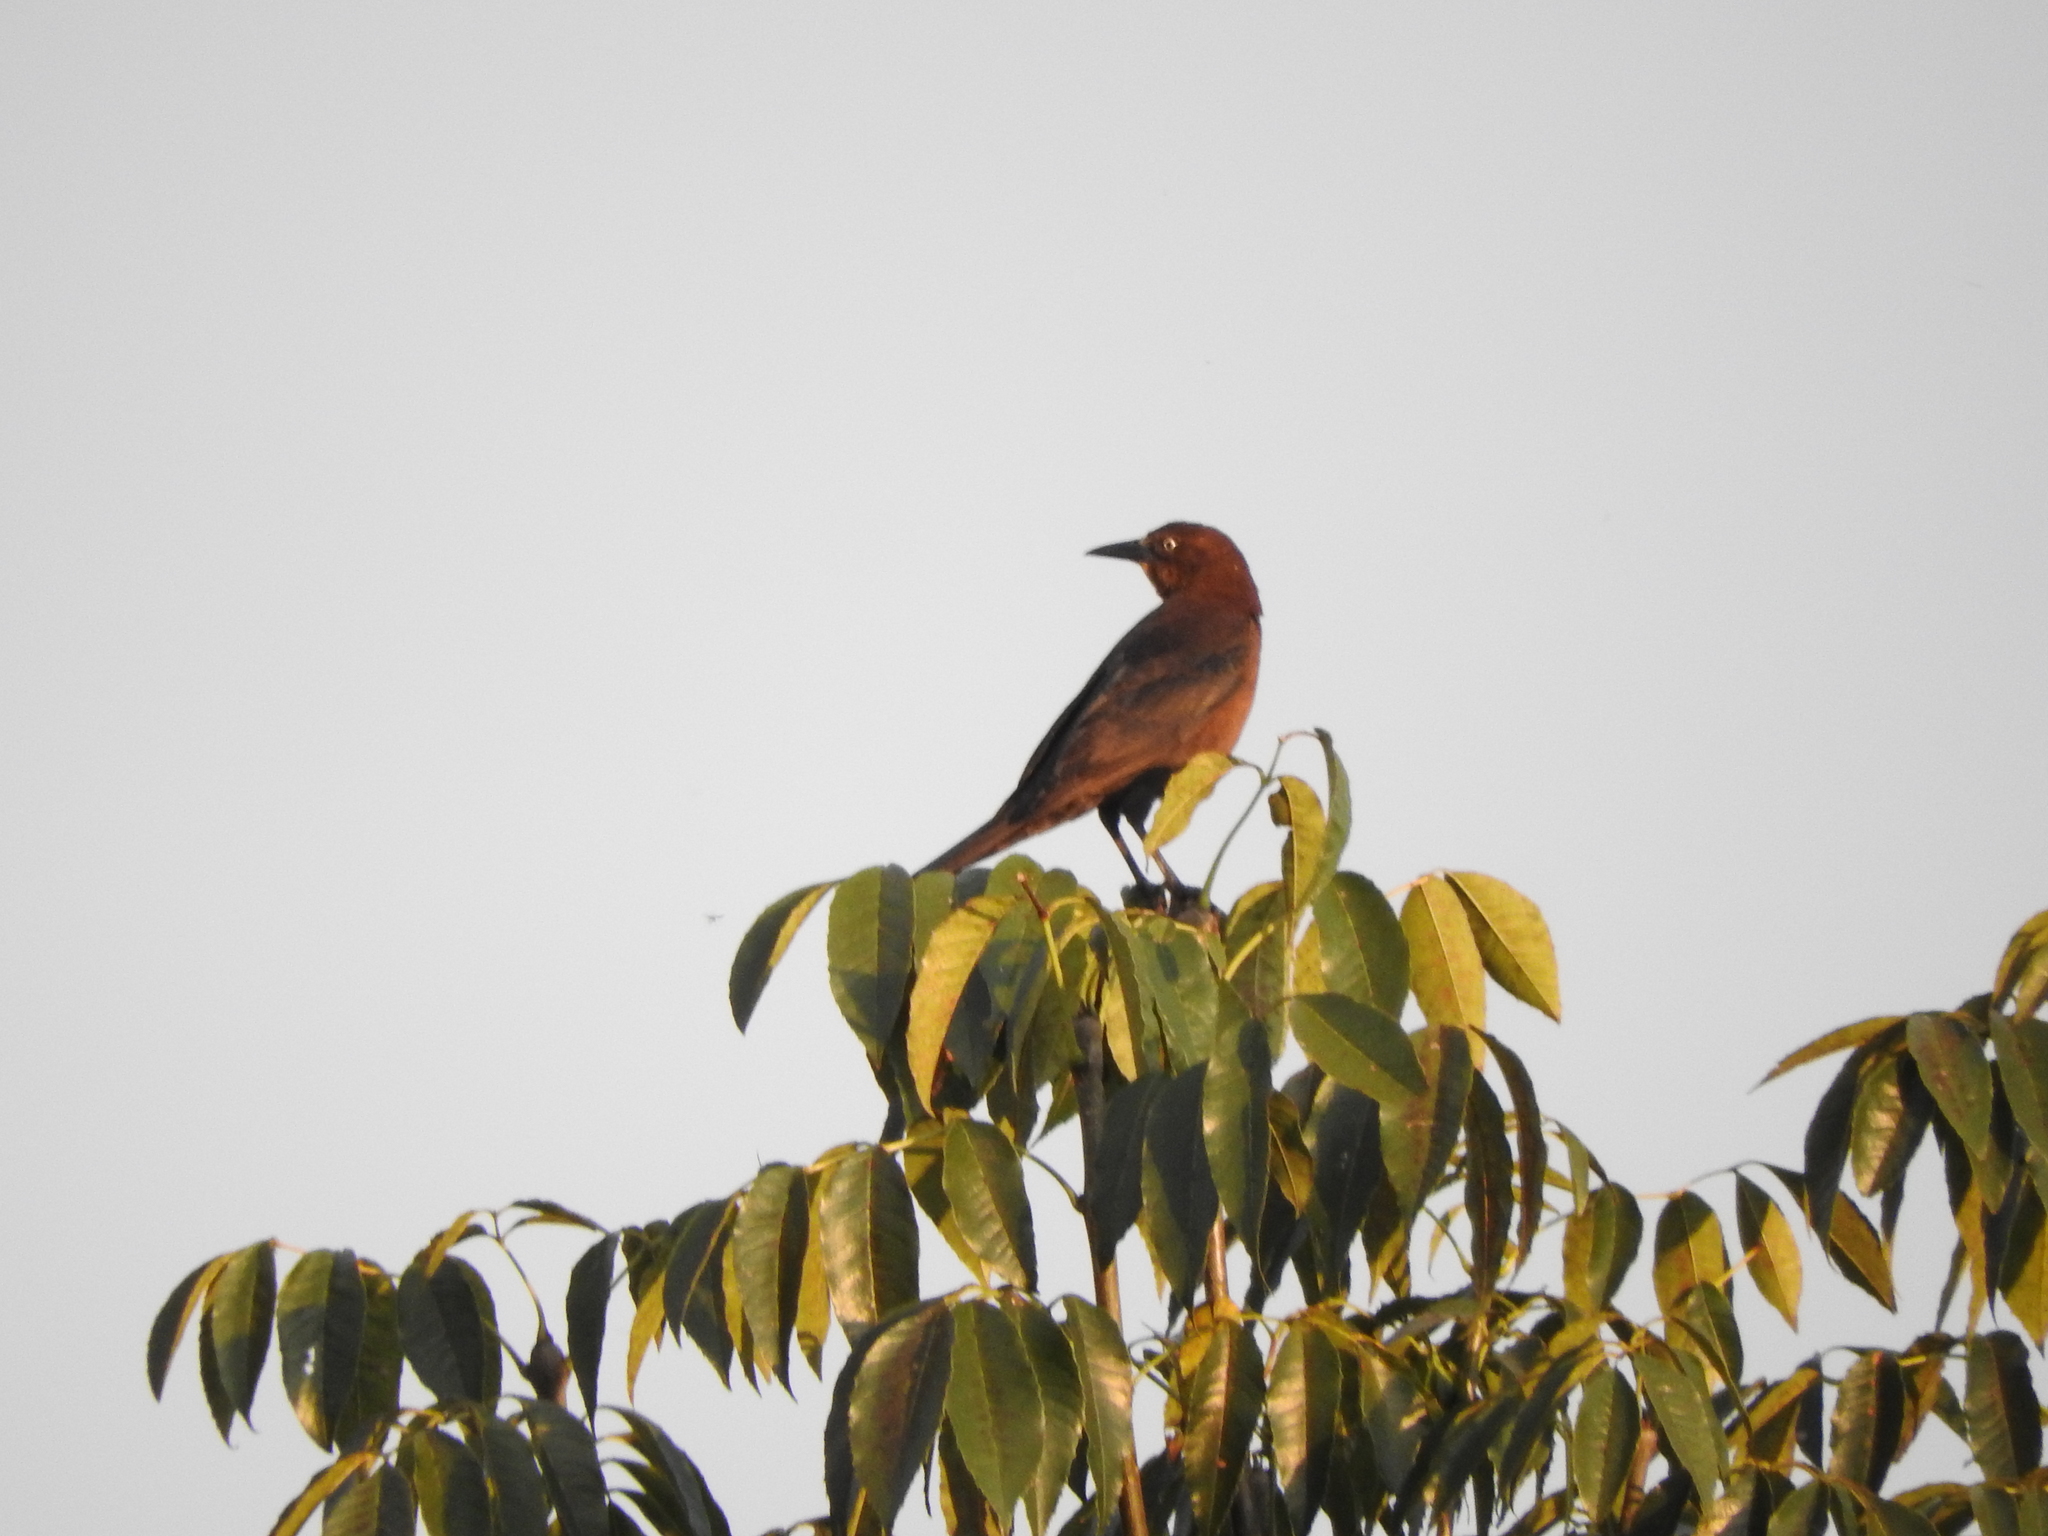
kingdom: Animalia
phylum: Chordata
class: Aves
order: Passeriformes
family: Icteridae
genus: Quiscalus
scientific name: Quiscalus mexicanus
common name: Great-tailed grackle
